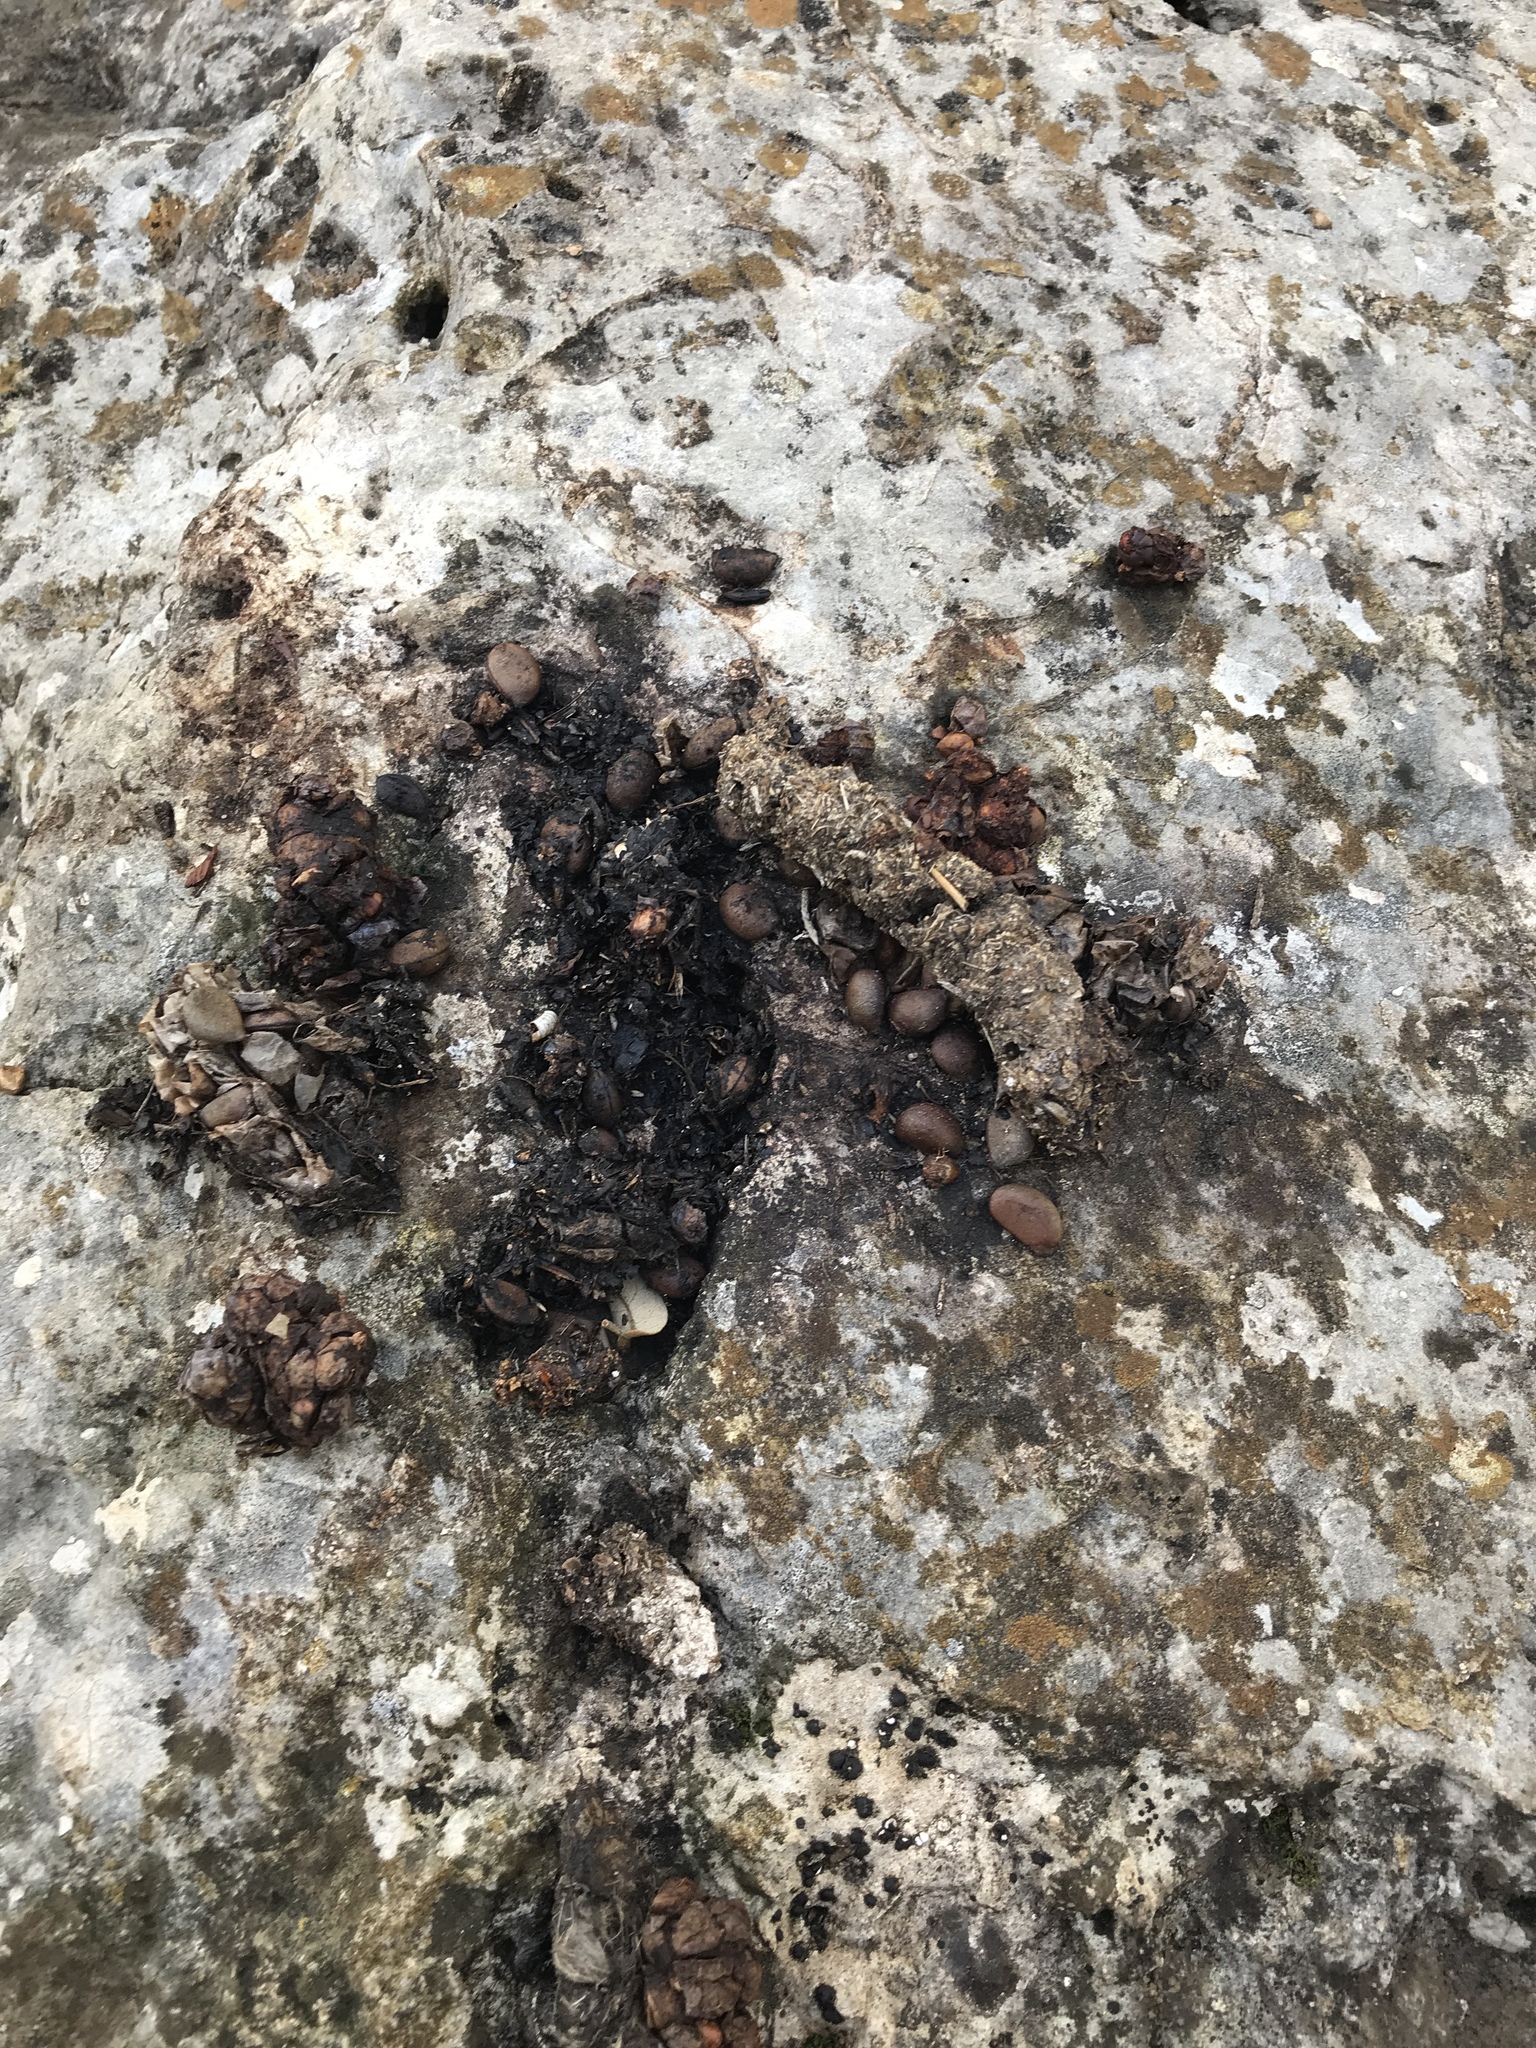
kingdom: Animalia
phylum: Chordata
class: Mammalia
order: Carnivora
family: Procyonidae
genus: Bassariscus
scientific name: Bassariscus astutus
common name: Ringtail
